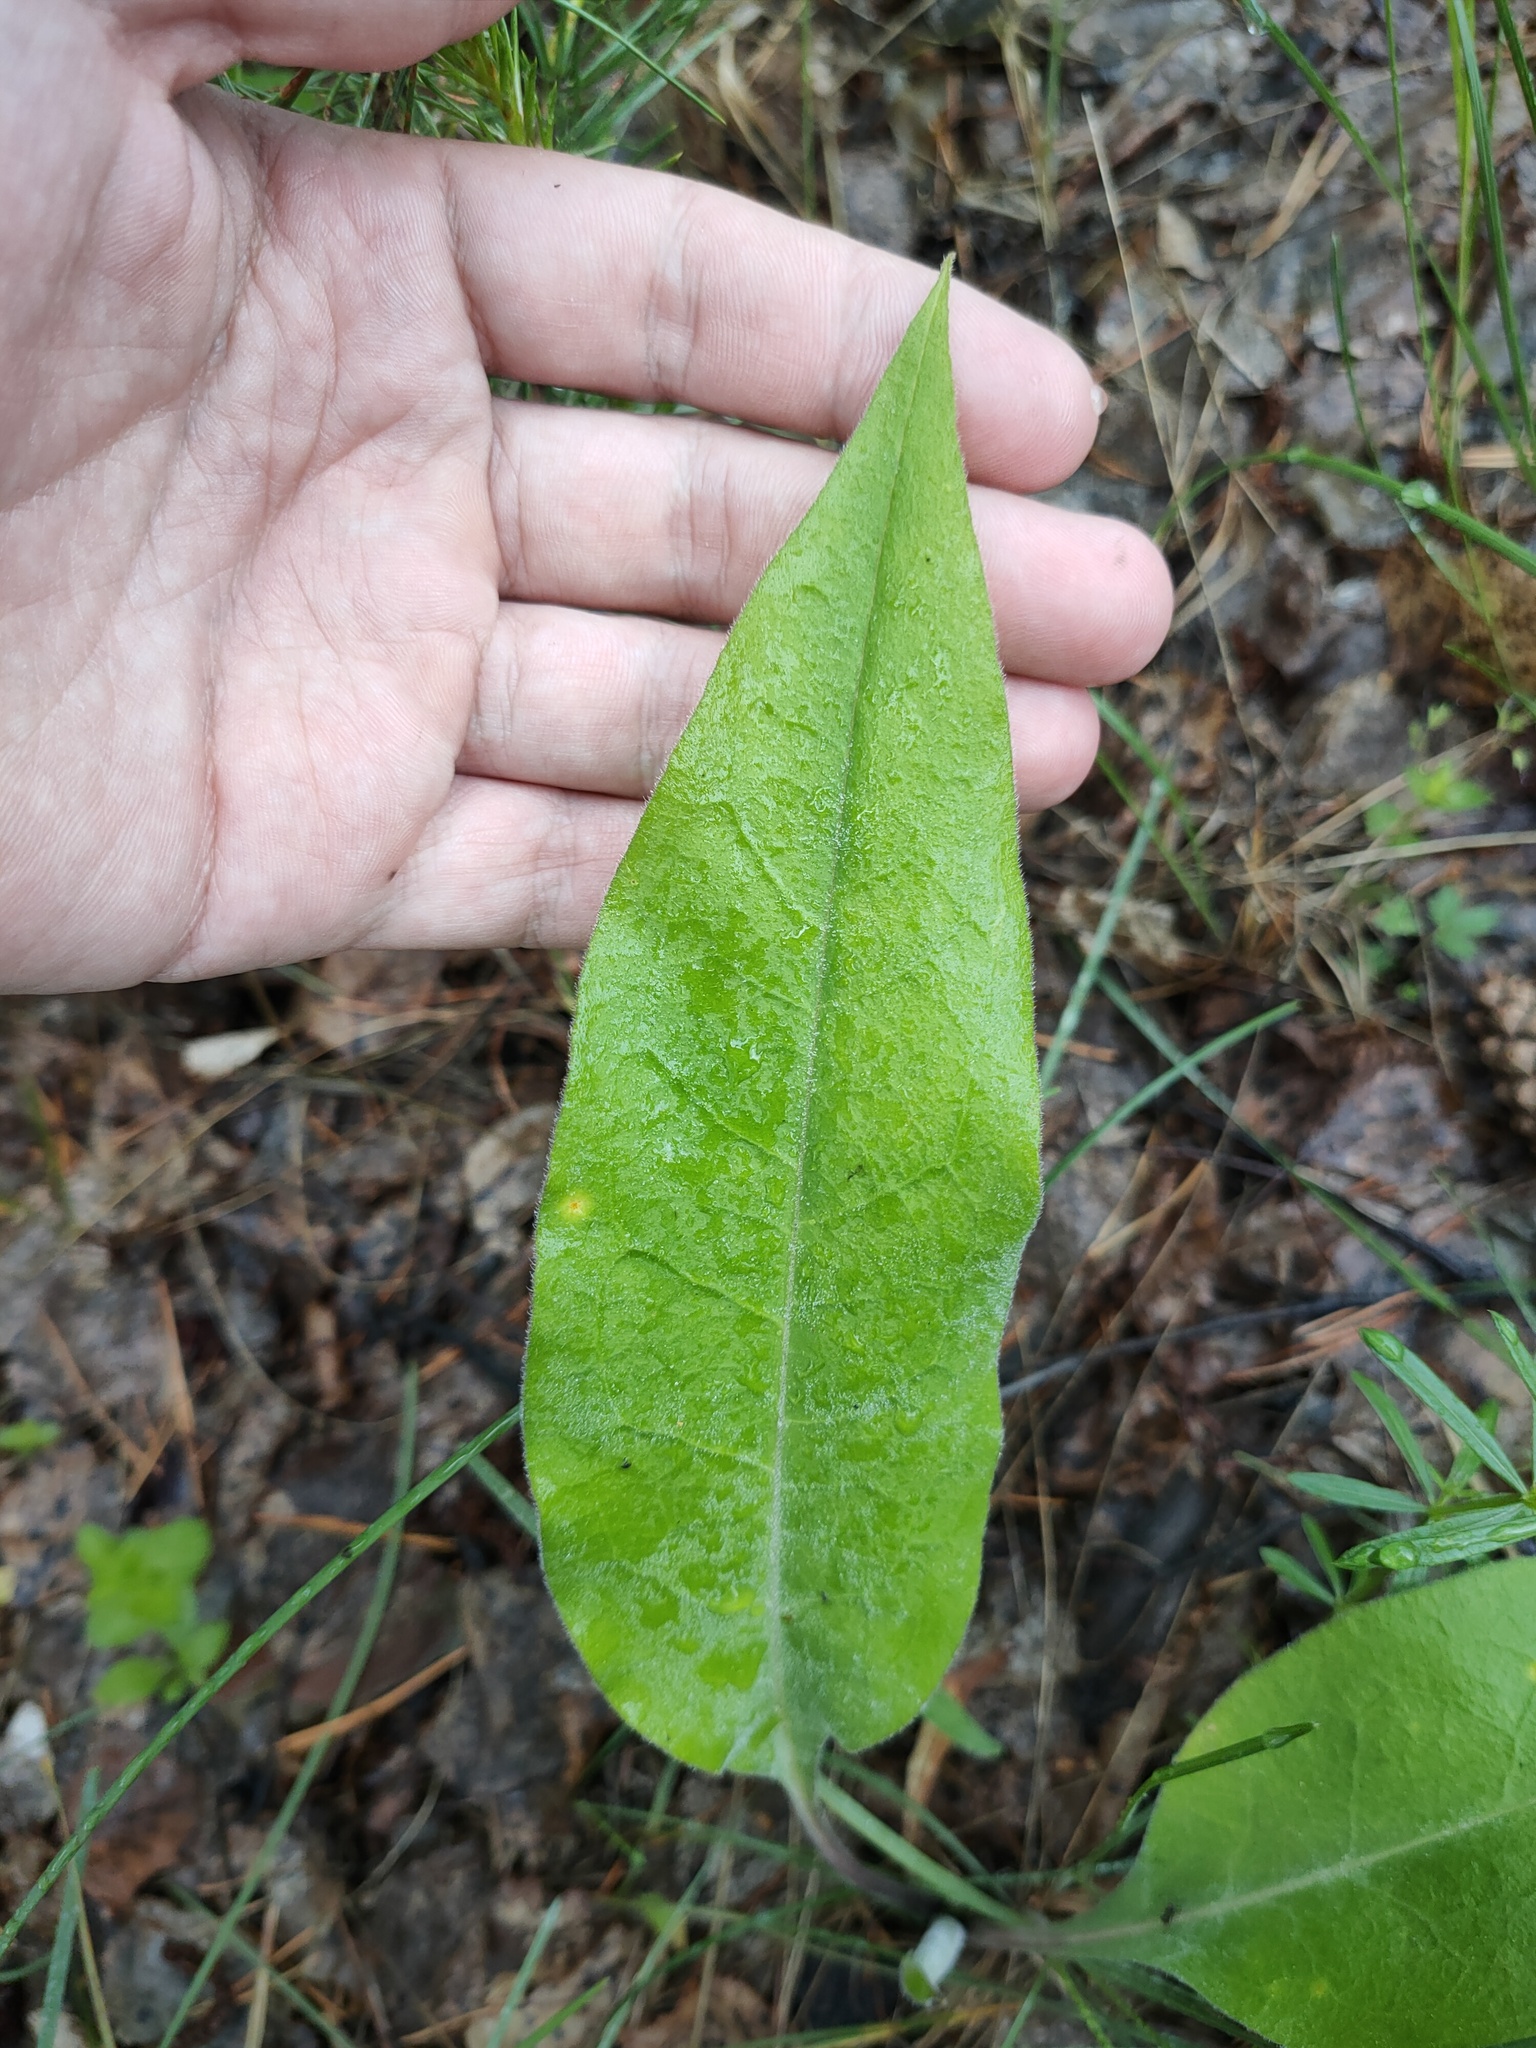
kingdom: Plantae
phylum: Tracheophyta
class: Magnoliopsida
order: Boraginales
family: Boraginaceae
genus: Pulmonaria
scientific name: Pulmonaria mollis
